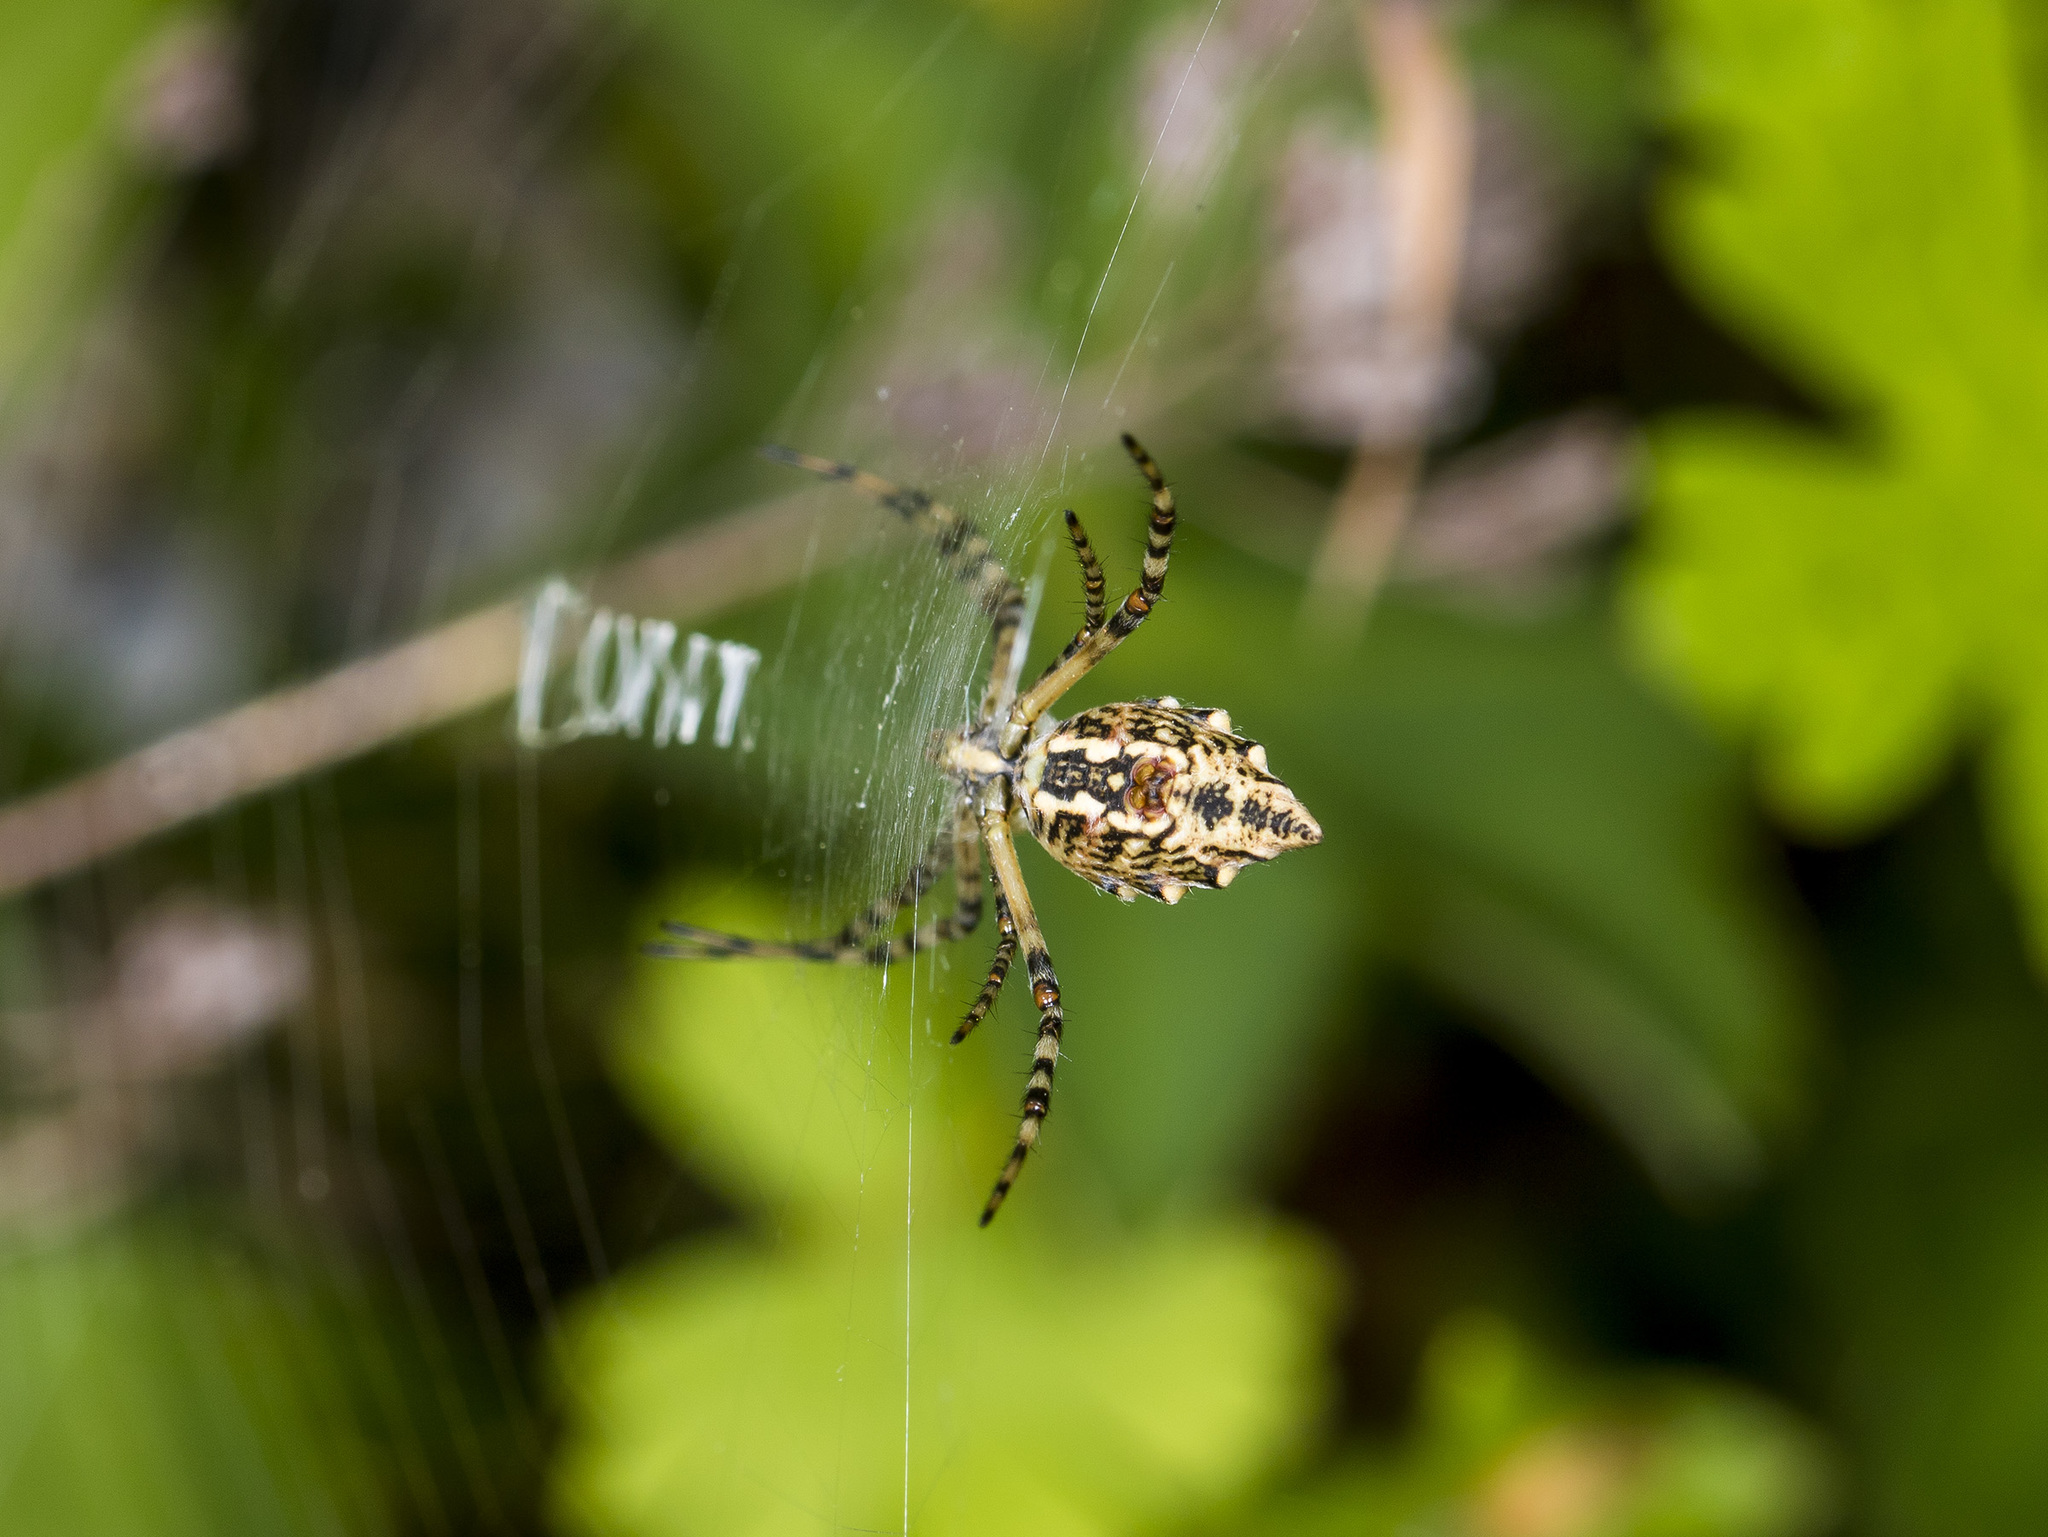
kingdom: Animalia
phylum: Arthropoda
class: Arachnida
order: Araneae
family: Araneidae
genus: Argiope
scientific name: Argiope lobata
